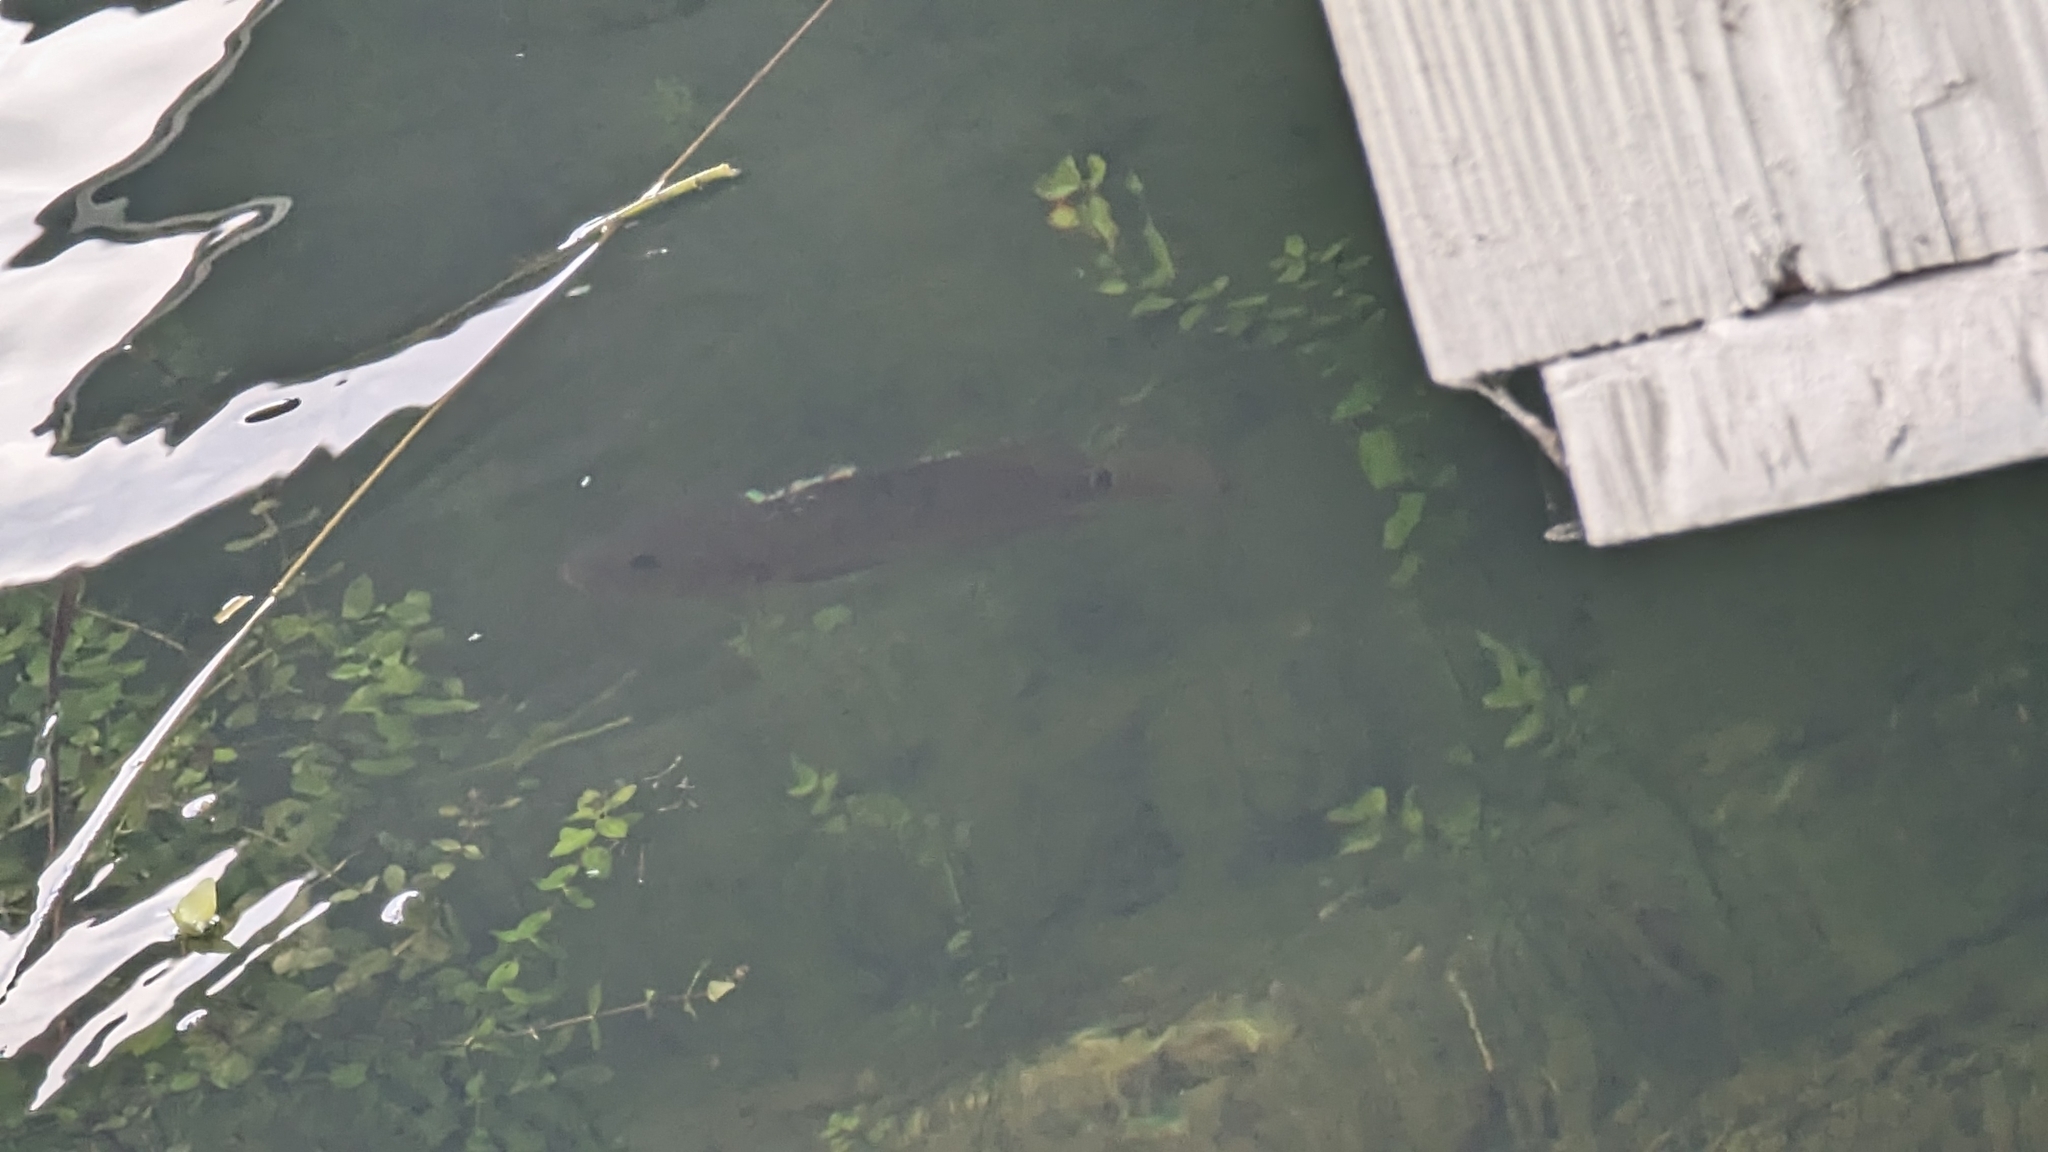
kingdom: Animalia
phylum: Chordata
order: Perciformes
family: Cichlidae
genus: Mayaheros
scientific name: Mayaheros urophthalmus
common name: Mayan cichlid
